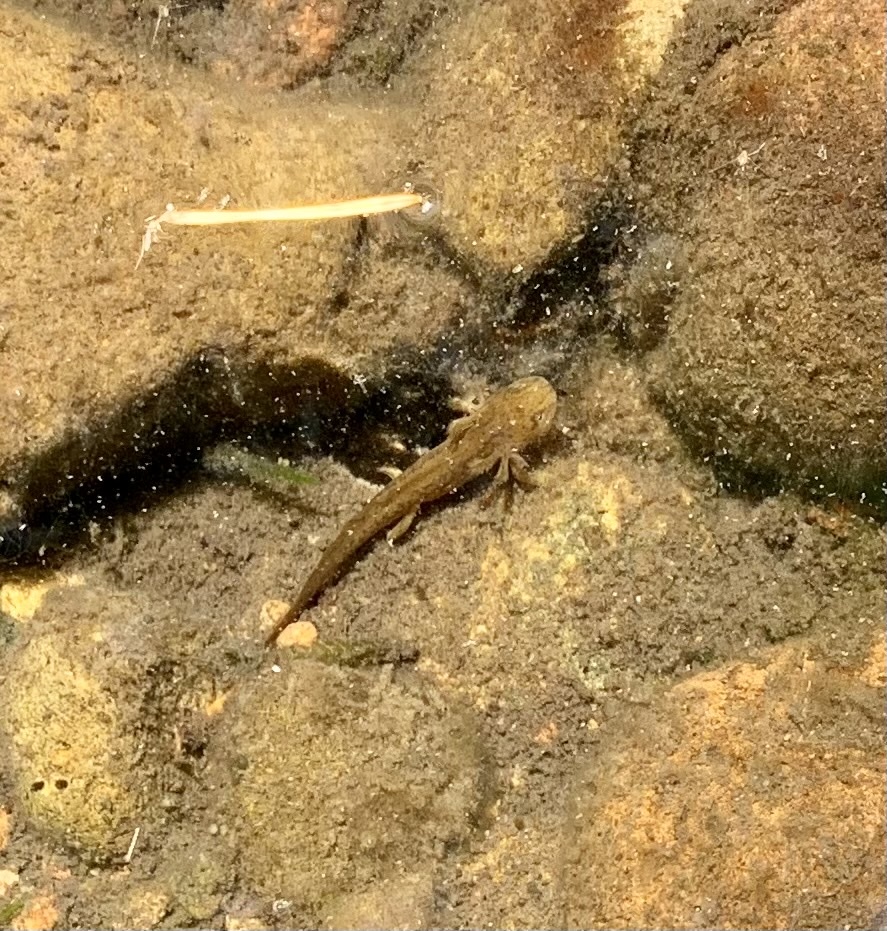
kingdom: Animalia
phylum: Chordata
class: Amphibia
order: Caudata
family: Salamandridae
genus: Taricha
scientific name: Taricha sierrae
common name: Sierra newt
